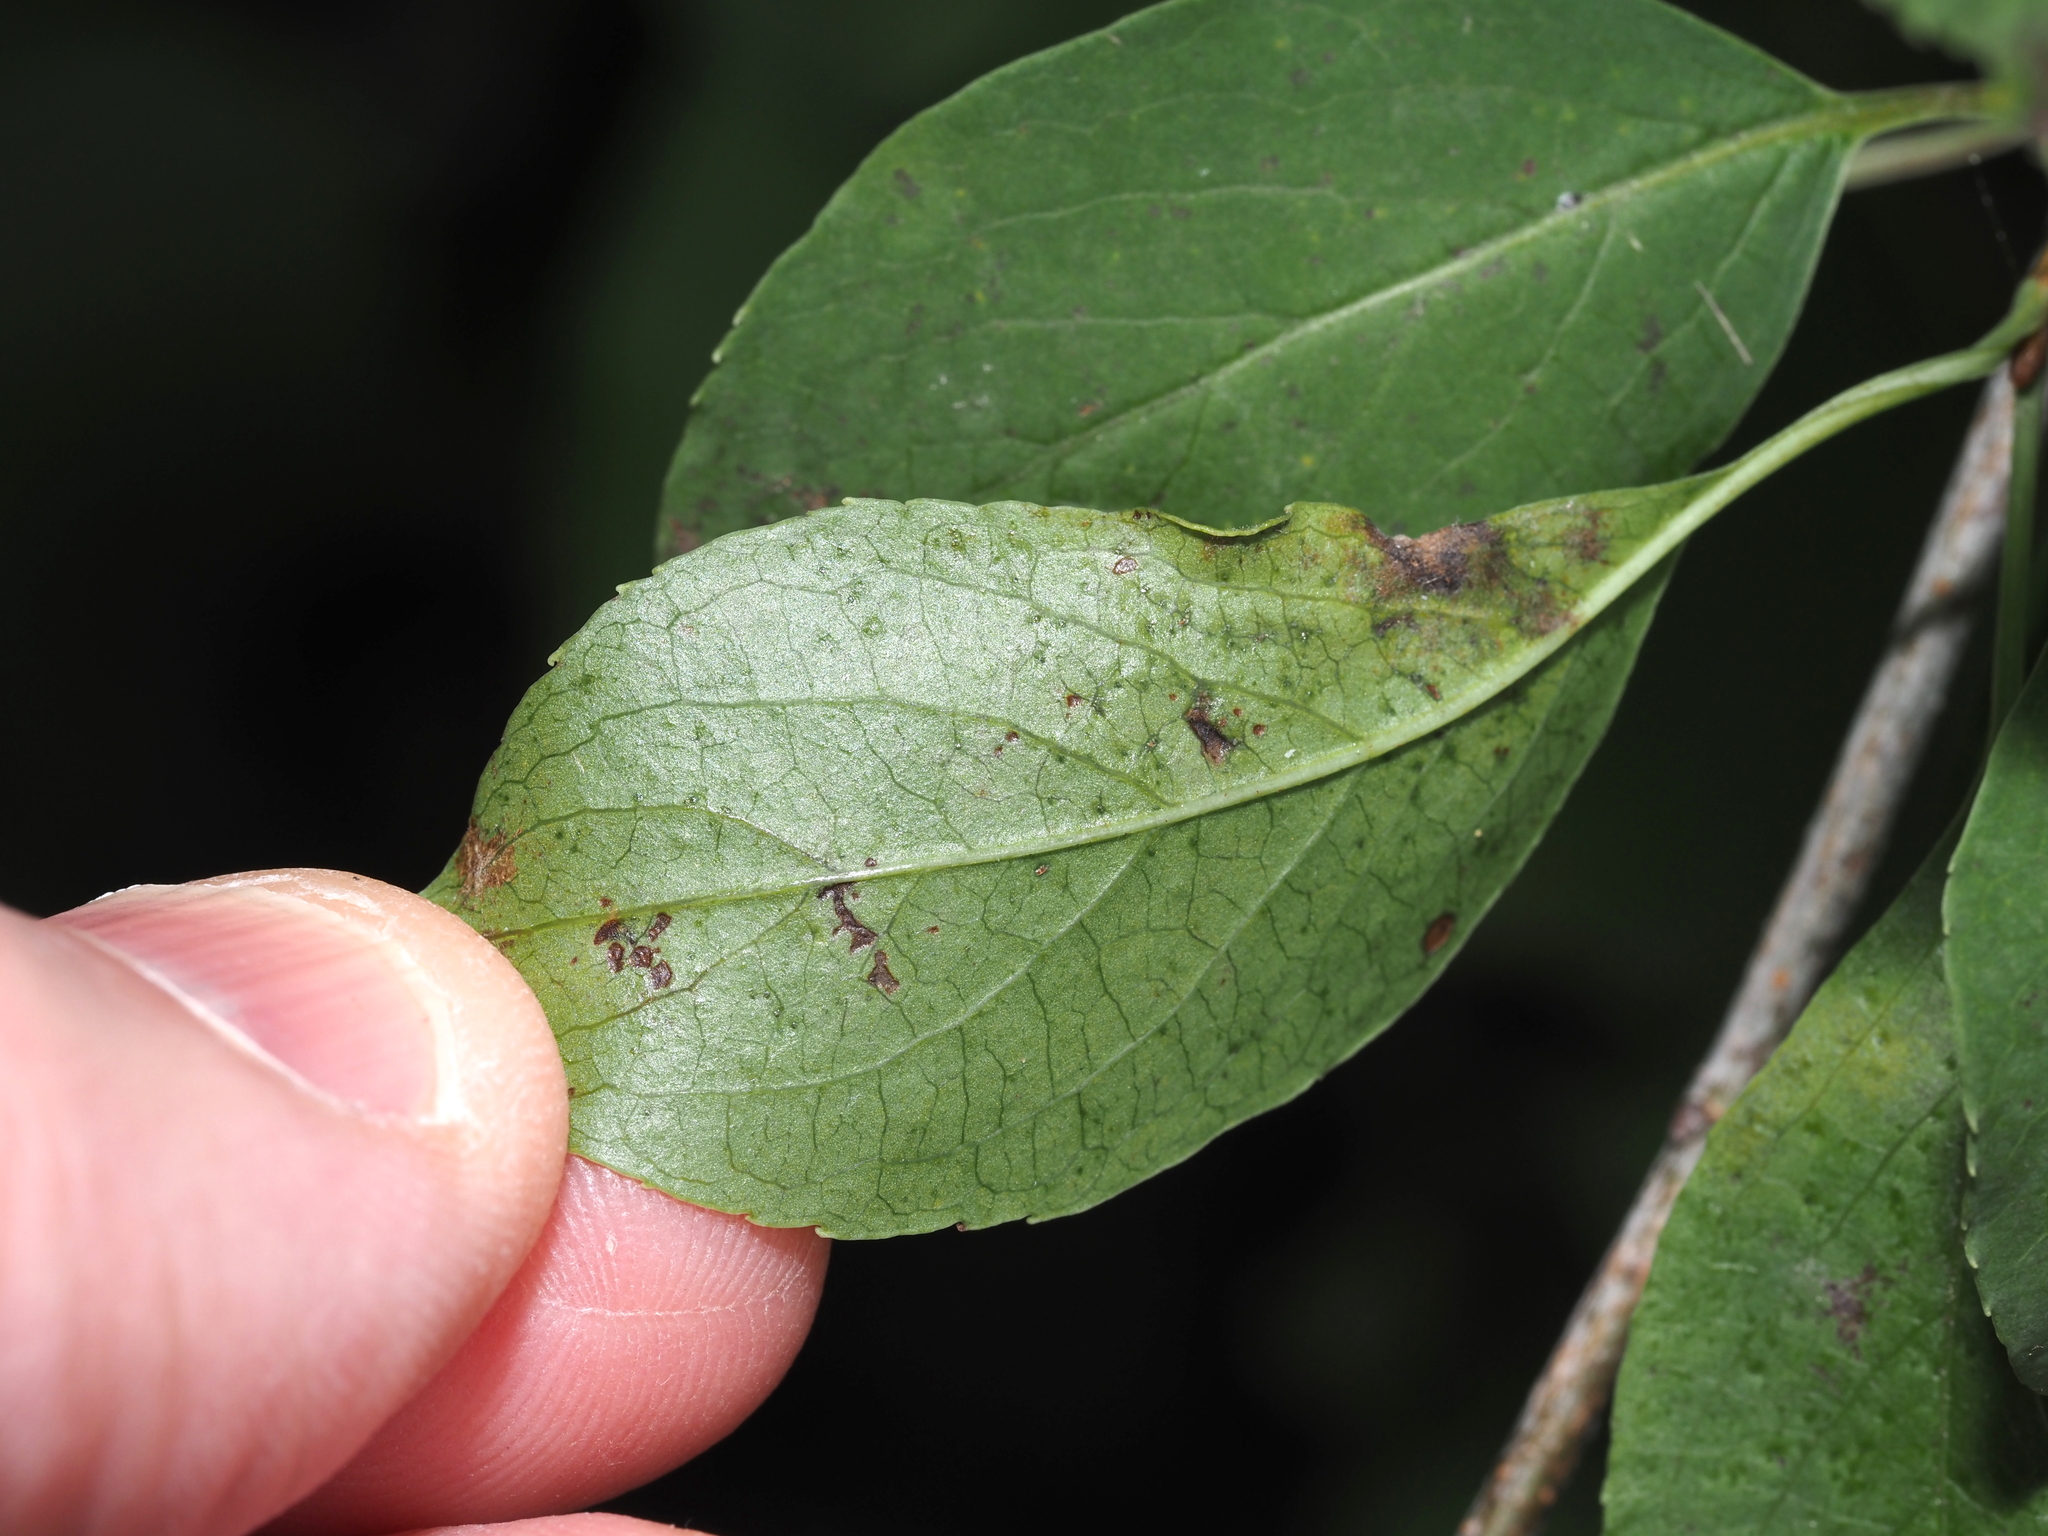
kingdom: Animalia
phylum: Arthropoda
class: Insecta
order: Lepidoptera
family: Gracillariidae
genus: Marmara
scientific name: Marmara viburnella
